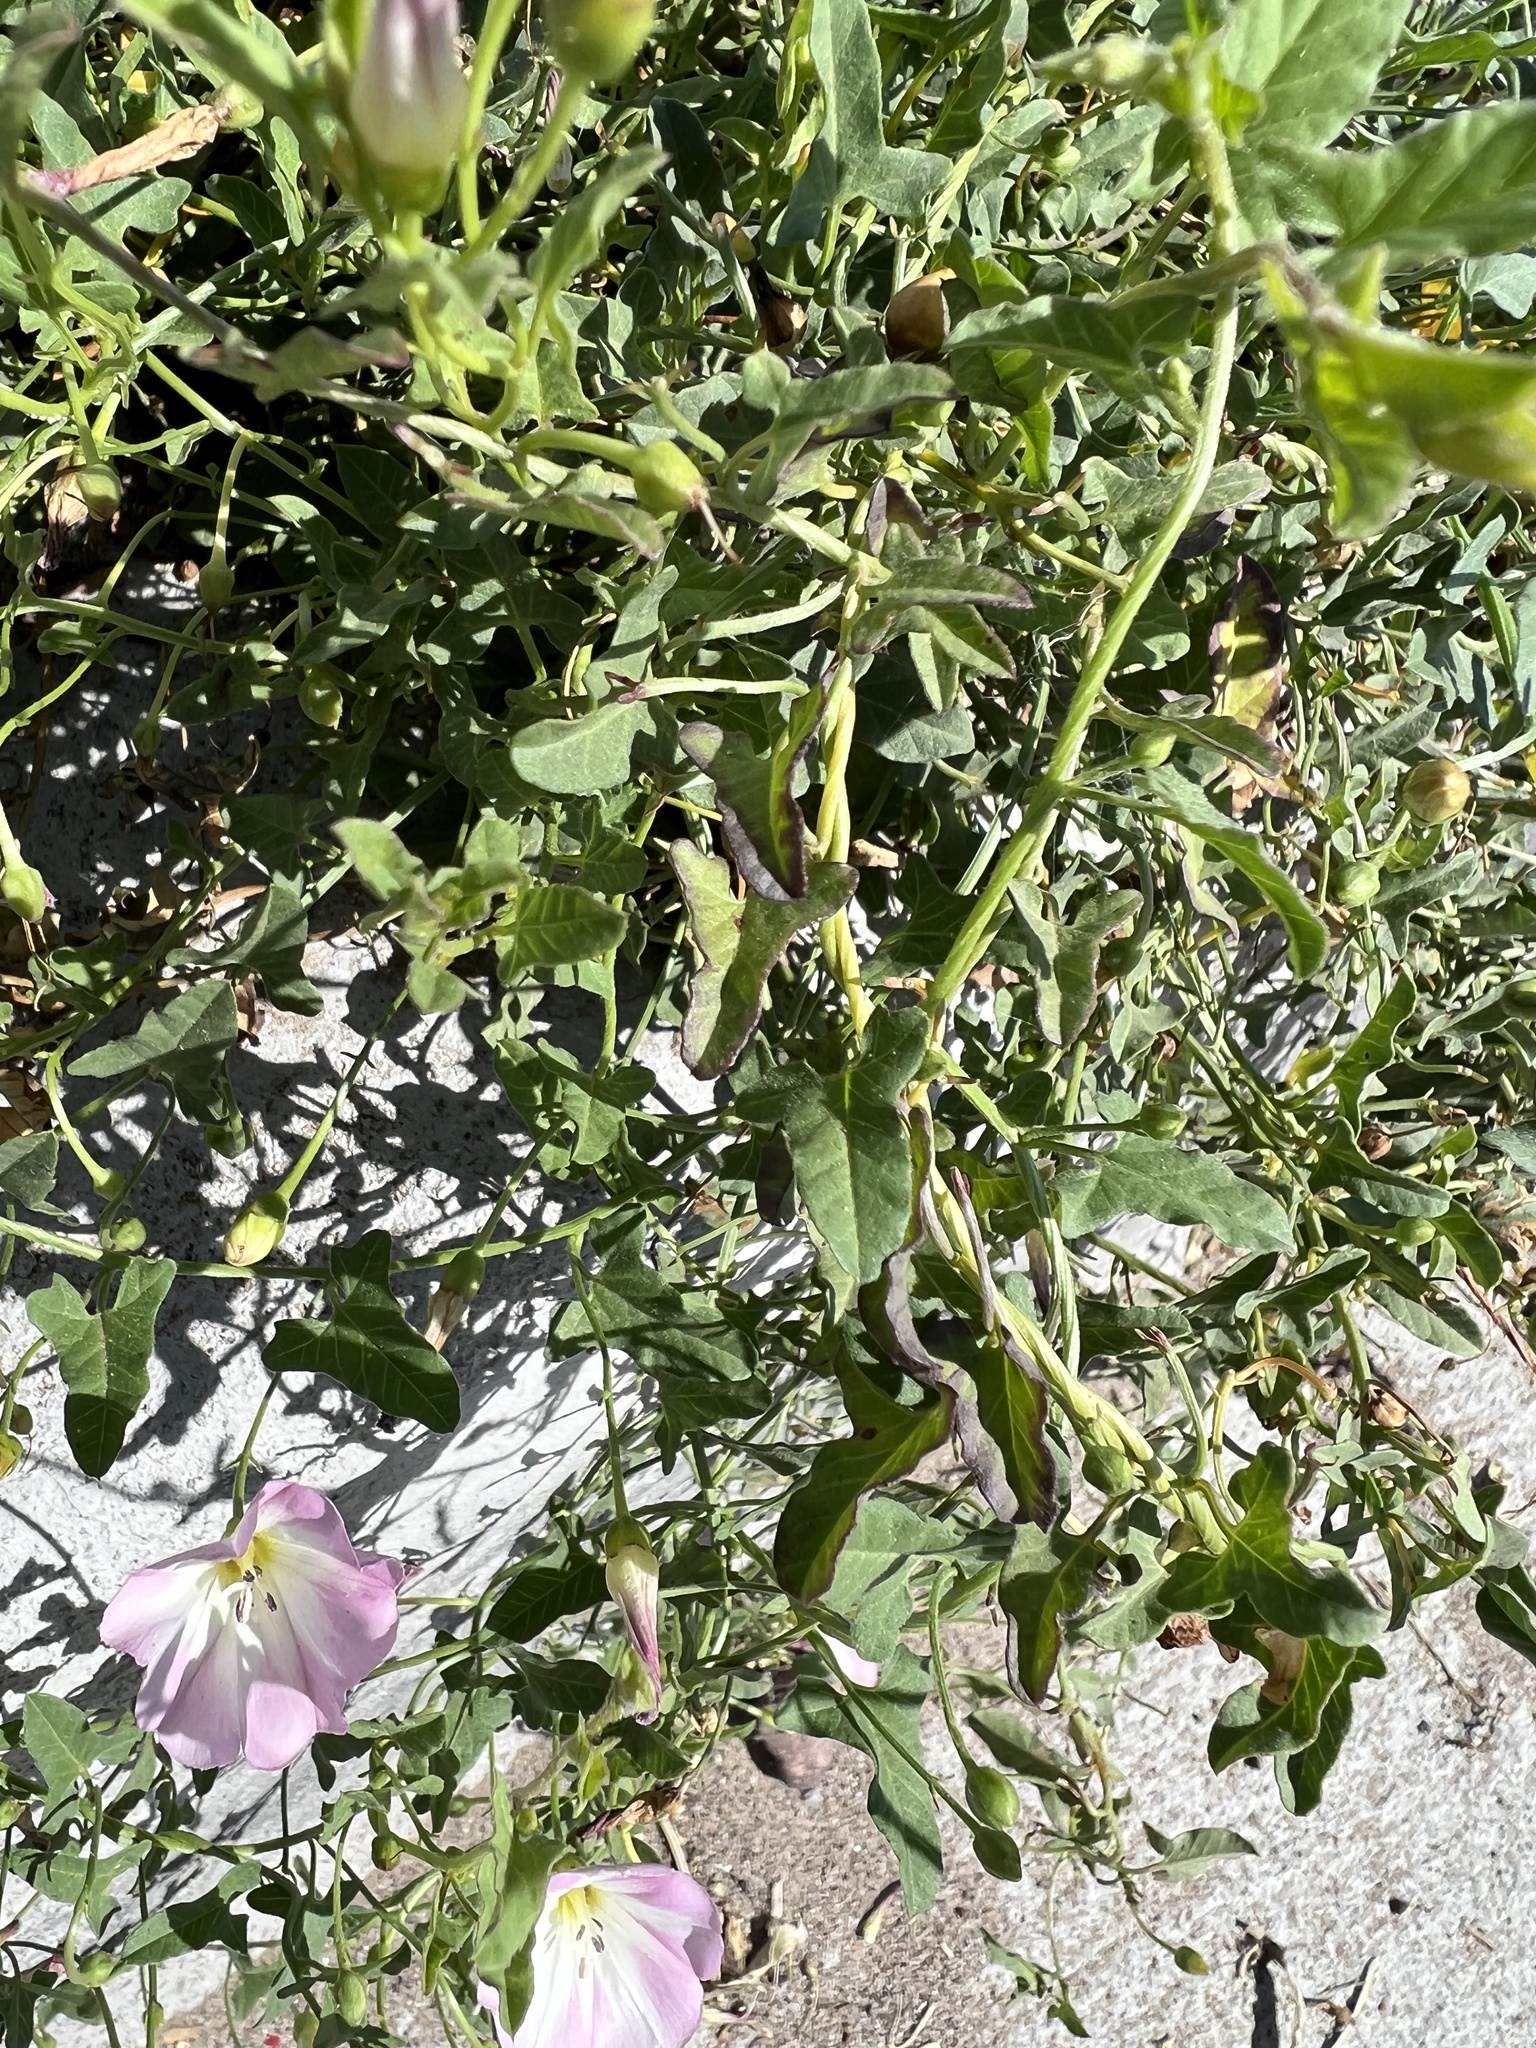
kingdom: Plantae
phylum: Tracheophyta
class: Magnoliopsida
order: Solanales
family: Convolvulaceae
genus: Convolvulus
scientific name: Convolvulus arvensis
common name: Field bindweed
